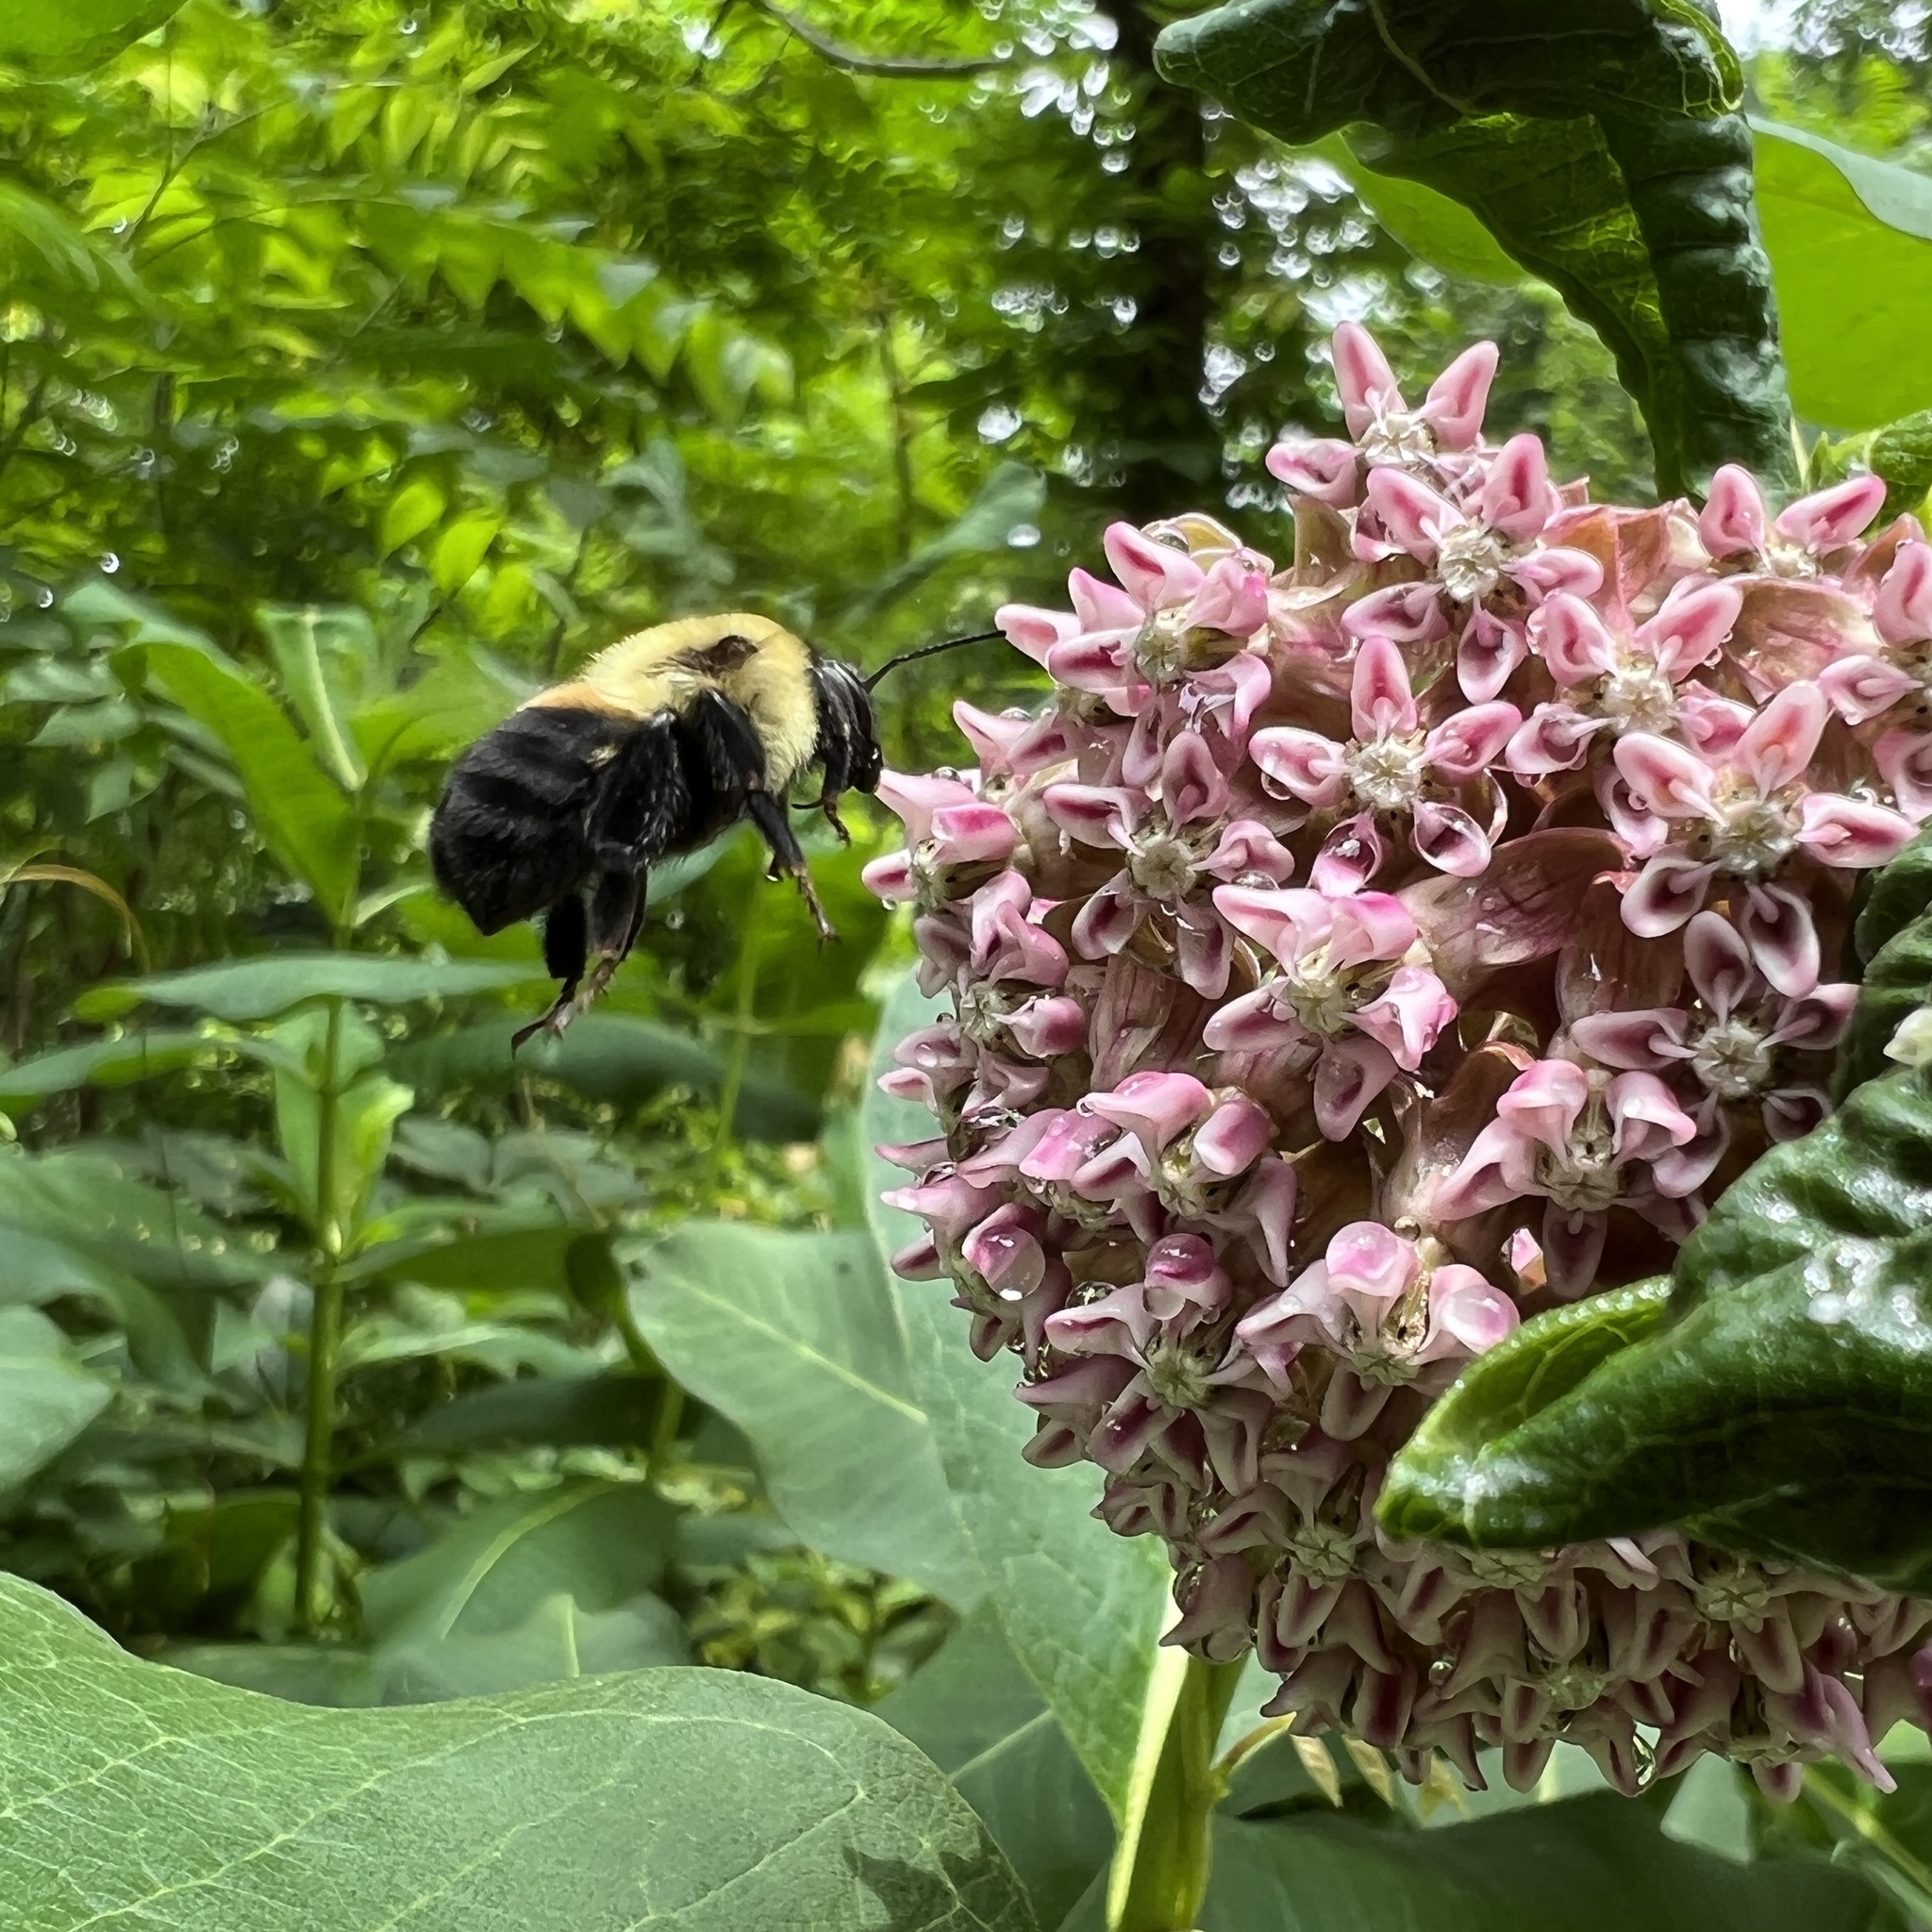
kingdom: Animalia
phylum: Arthropoda
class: Insecta
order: Hymenoptera
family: Apidae
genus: Bombus
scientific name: Bombus griseocollis
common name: Brown-belted bumble bee
